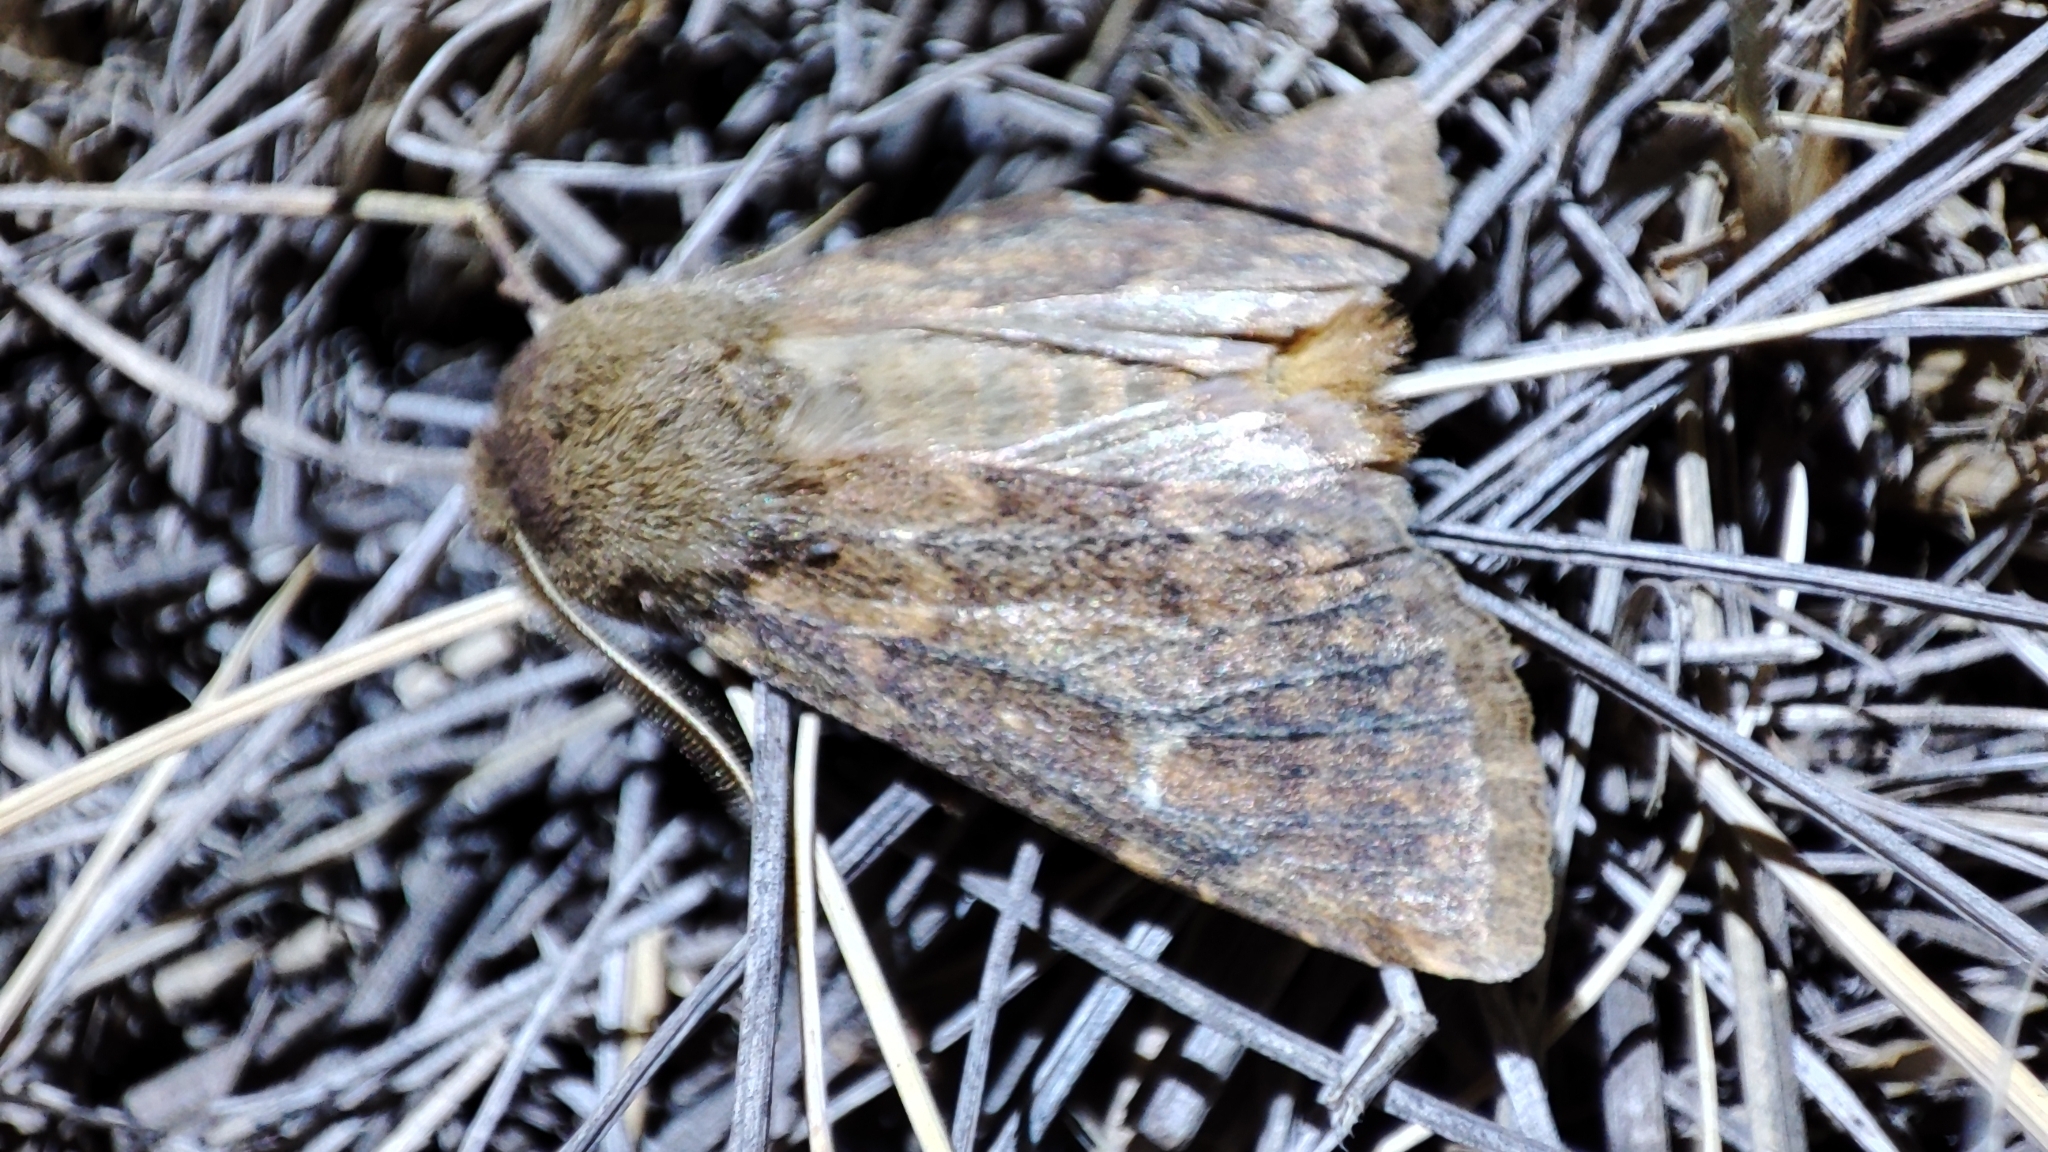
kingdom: Animalia
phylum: Arthropoda
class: Insecta
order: Lepidoptera
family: Noctuidae
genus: Dasypolia
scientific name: Dasypolia templi
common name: Brindled ochre
